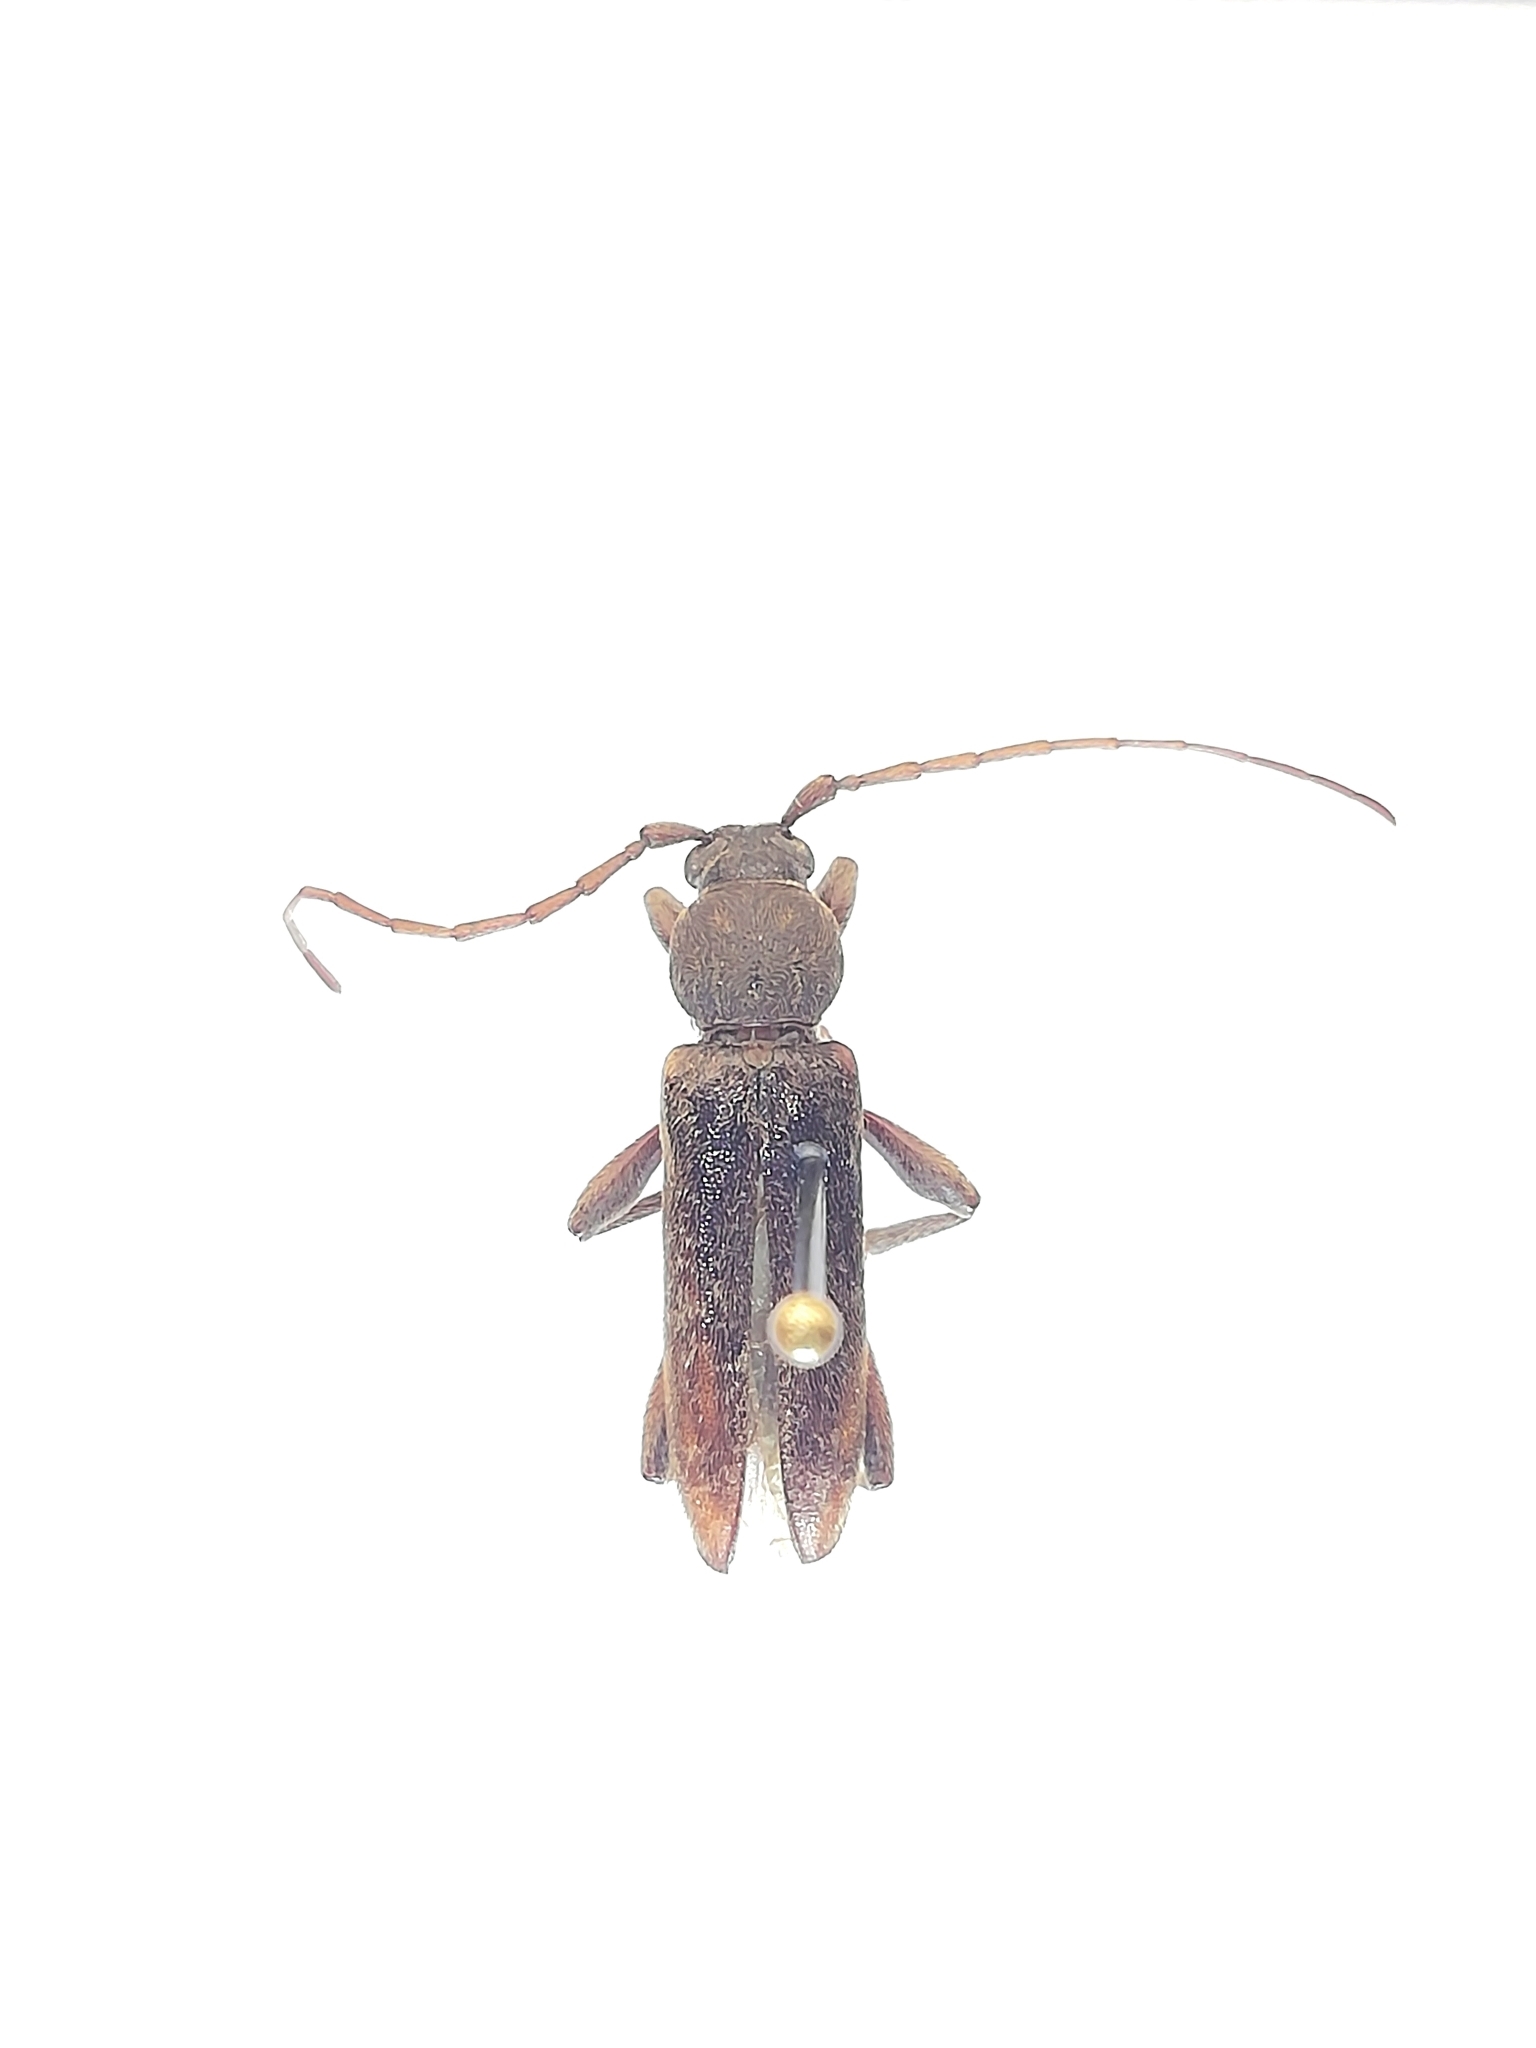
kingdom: Animalia
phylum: Arthropoda
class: Insecta
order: Coleoptera
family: Cerambycidae
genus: Trichoferus
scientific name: Trichoferus campestris
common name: Velvet long horned beetle
